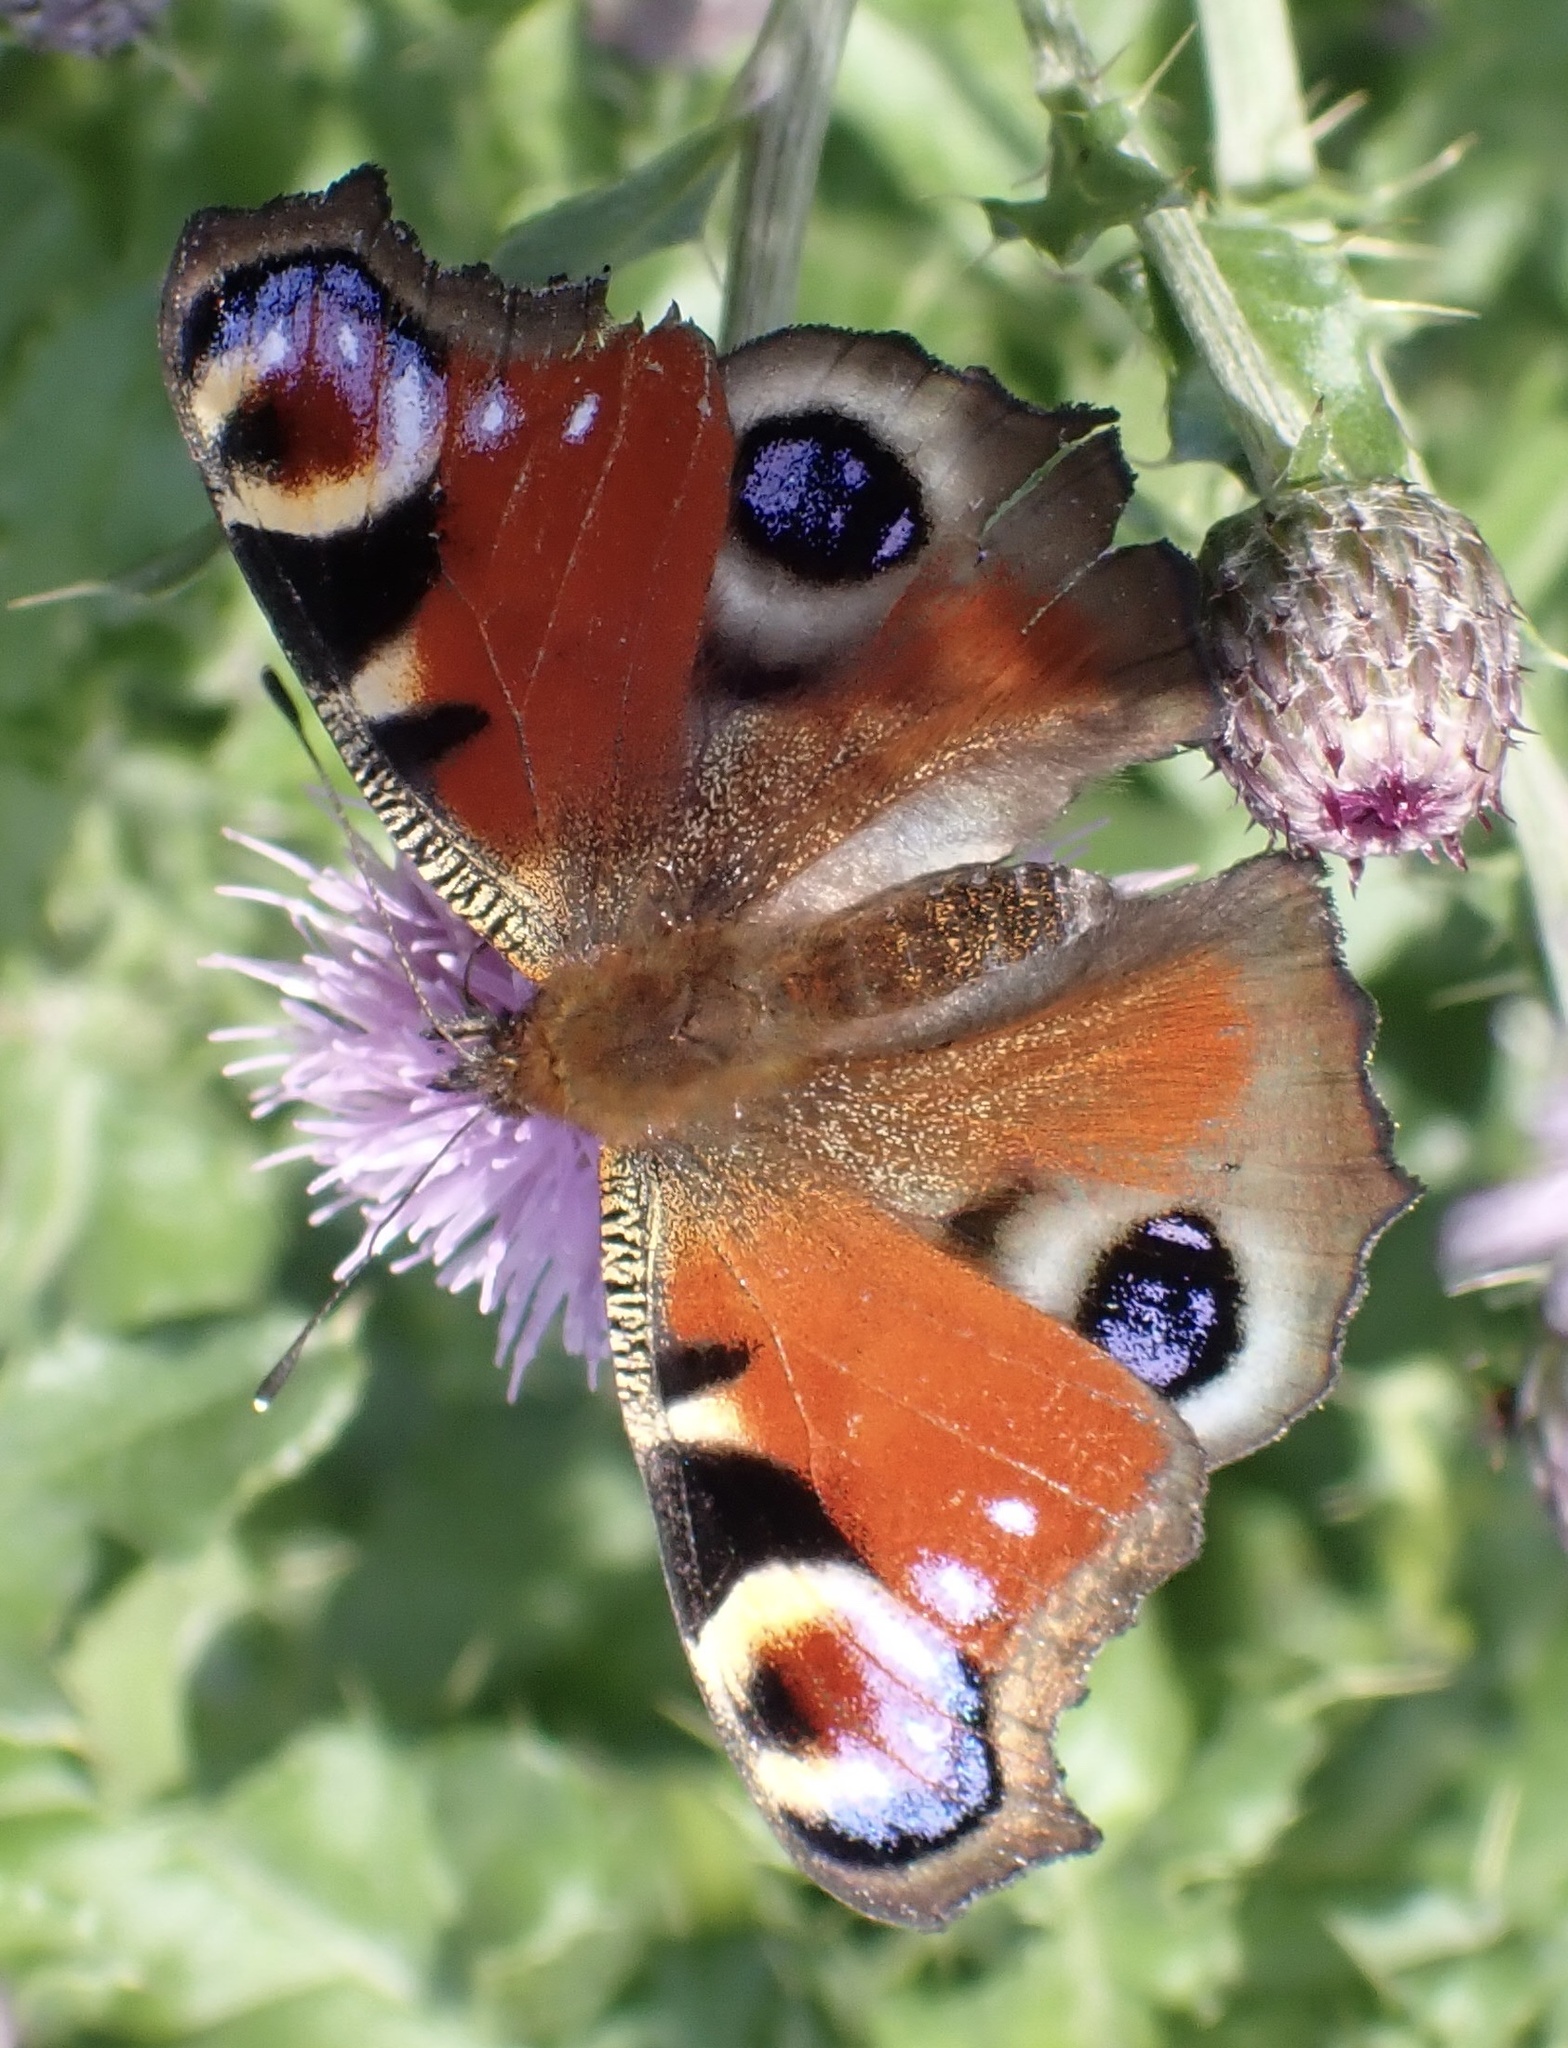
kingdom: Animalia
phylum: Arthropoda
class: Insecta
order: Lepidoptera
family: Nymphalidae
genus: Aglais
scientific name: Aglais io
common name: Peacock
